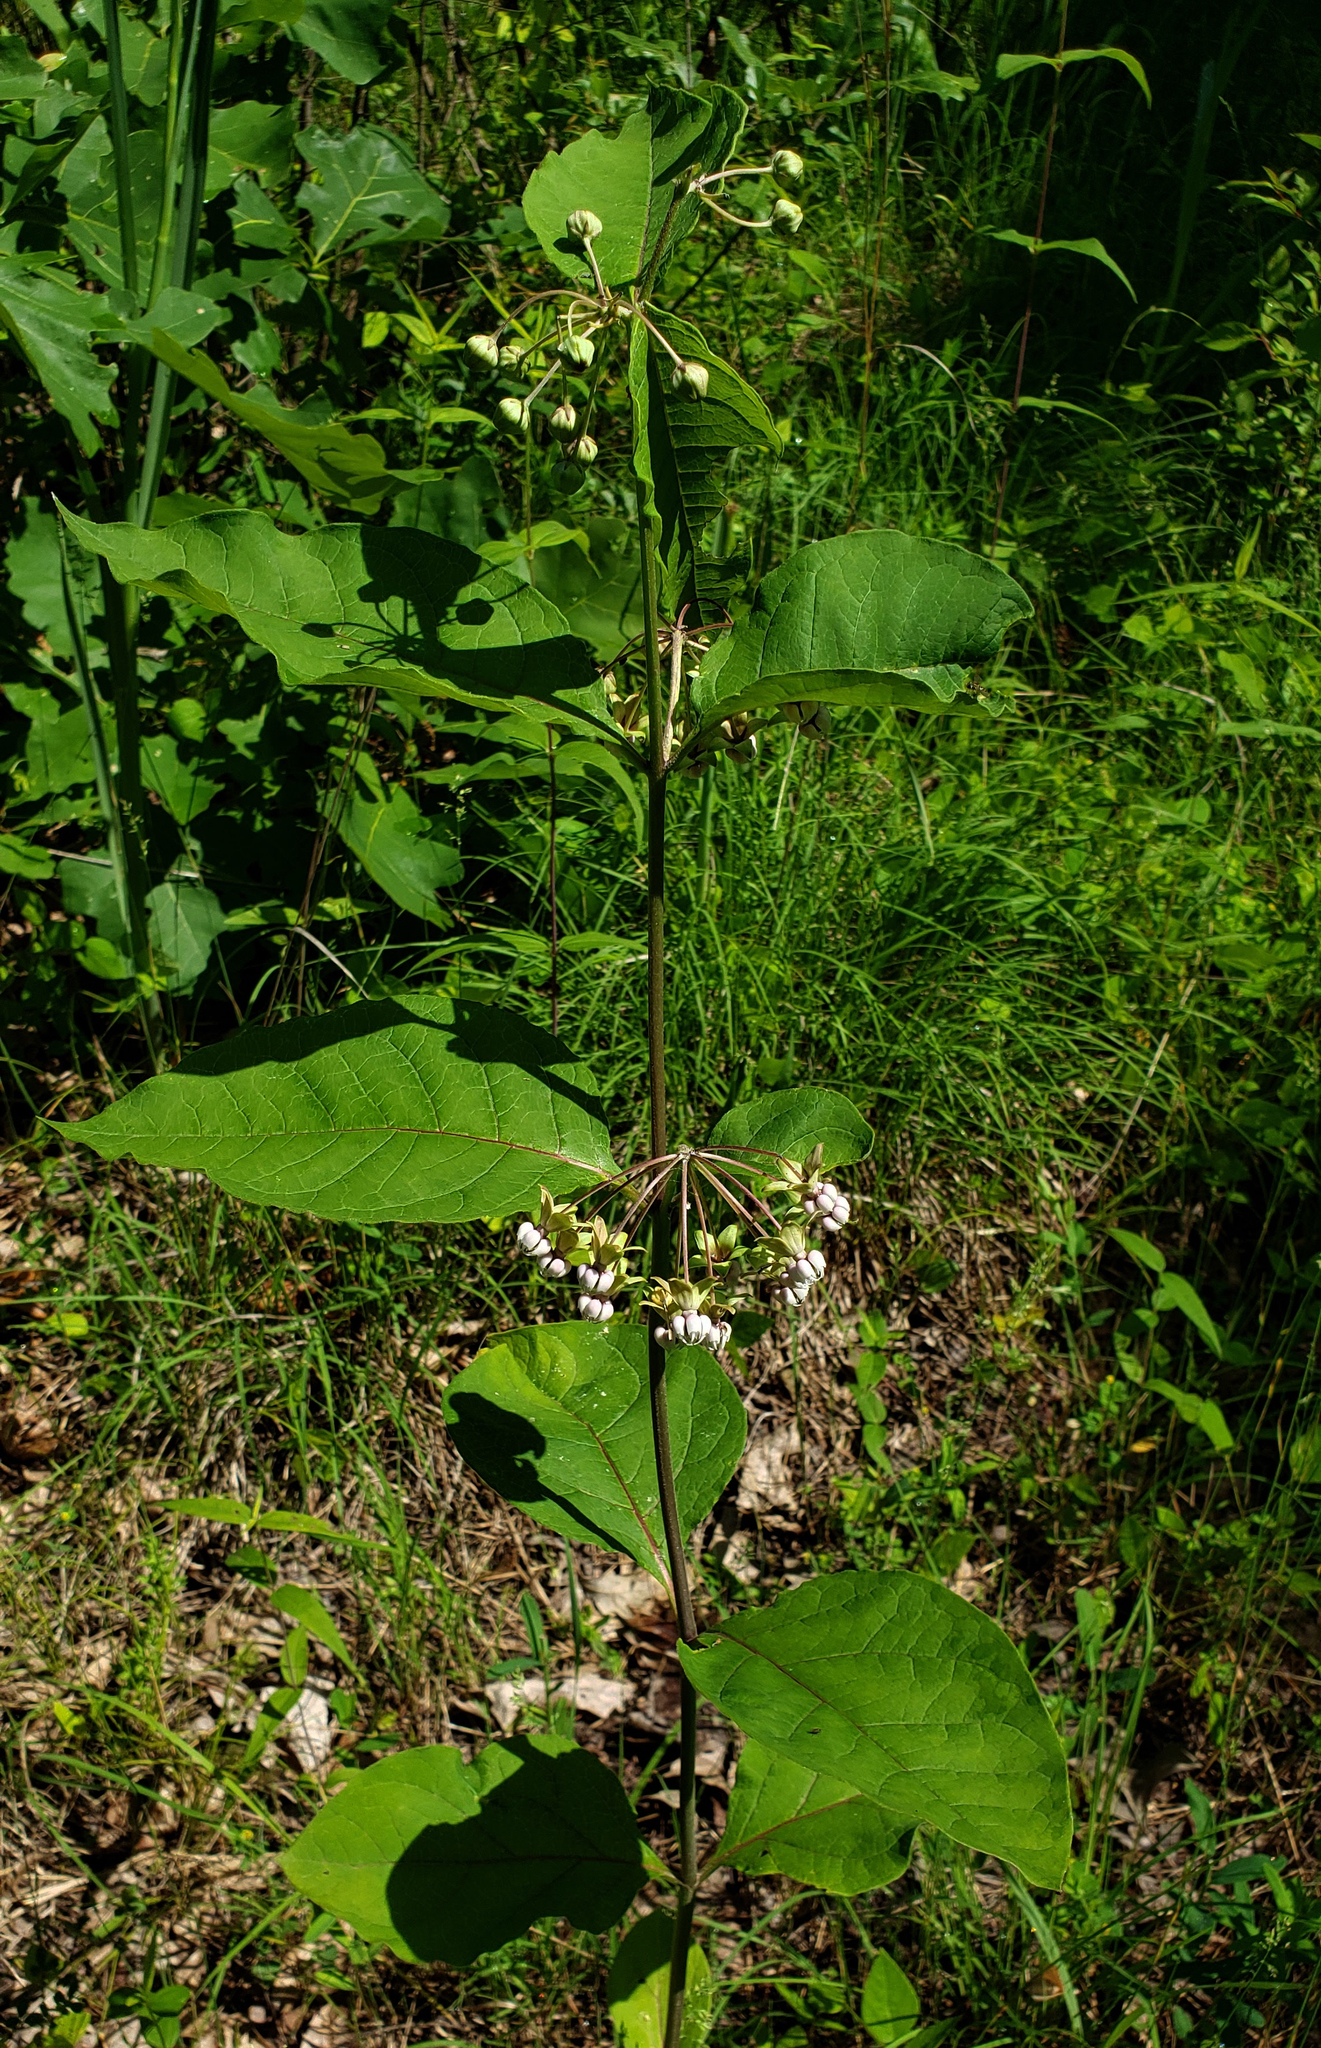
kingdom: Plantae
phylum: Tracheophyta
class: Magnoliopsida
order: Gentianales
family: Apocynaceae
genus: Asclepias
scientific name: Asclepias exaltata
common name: Poke milkweed
